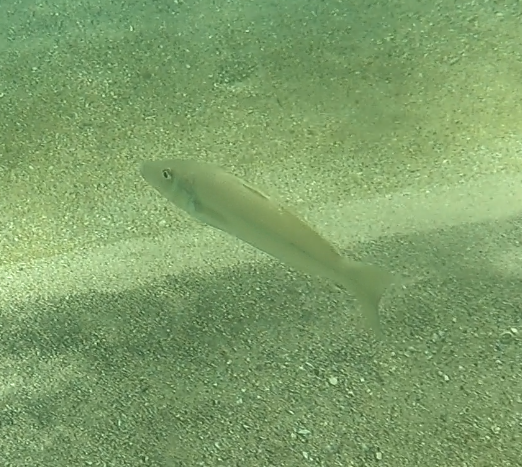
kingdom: Animalia
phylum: Chordata
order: Perciformes
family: Sillaginidae
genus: Sillago
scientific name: Sillago ciliata
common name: Sand sillago
